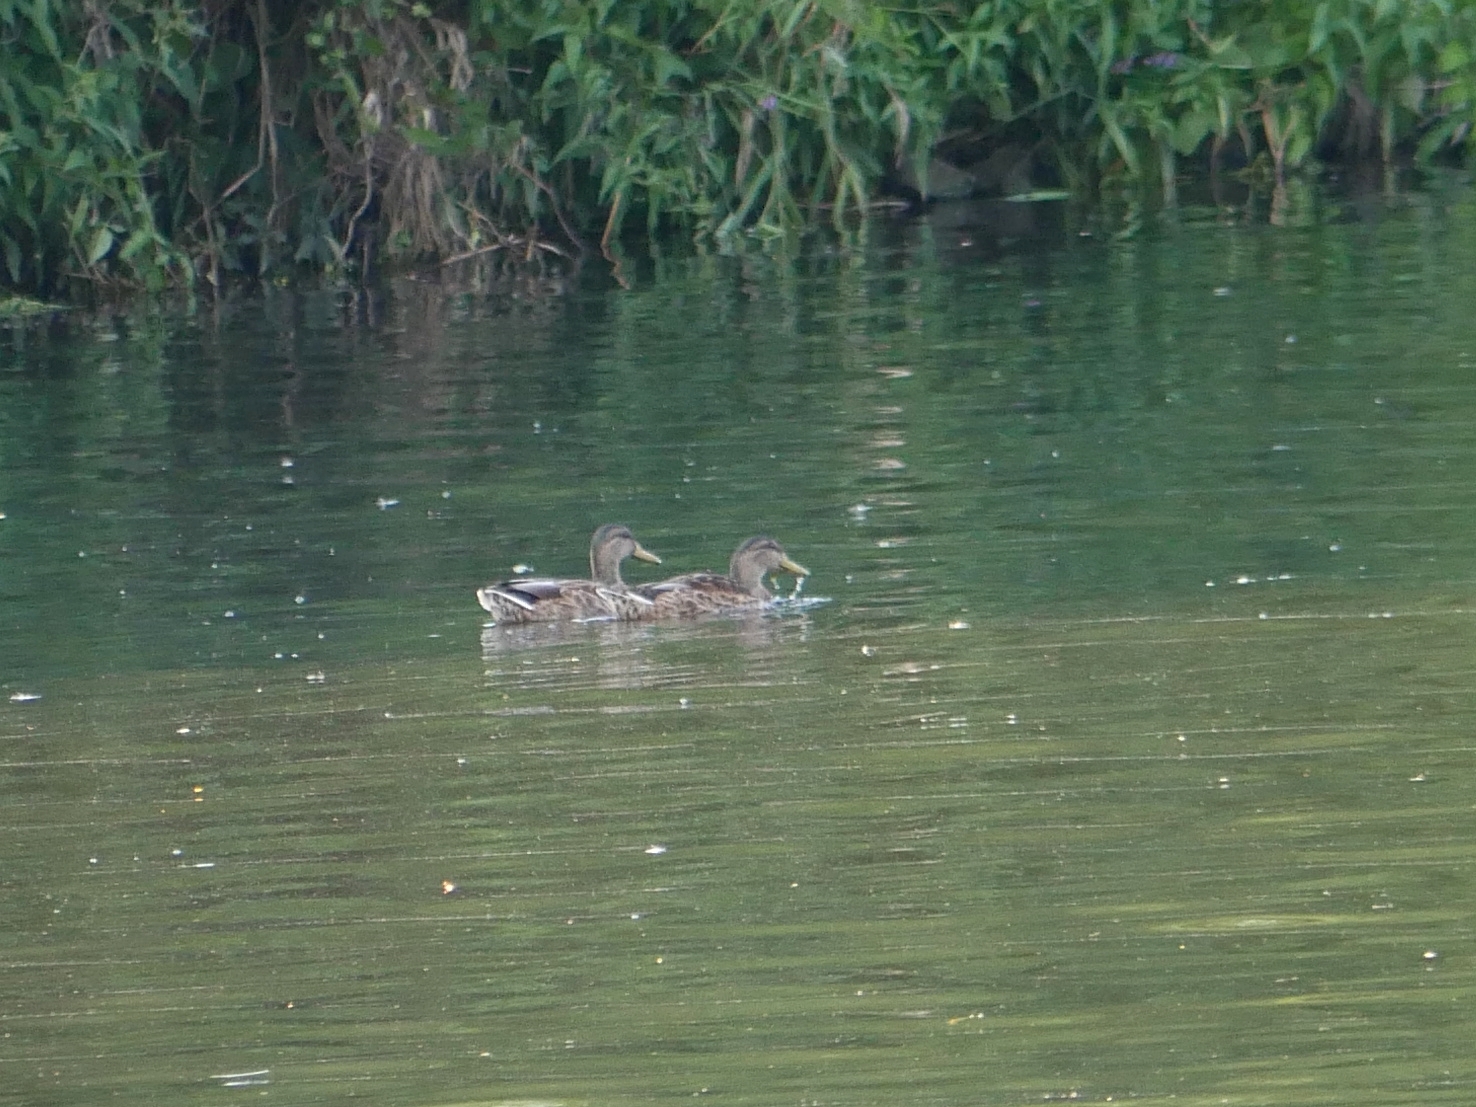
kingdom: Animalia
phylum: Chordata
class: Aves
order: Anseriformes
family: Anatidae
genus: Anas
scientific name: Anas platyrhynchos
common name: Mallard
